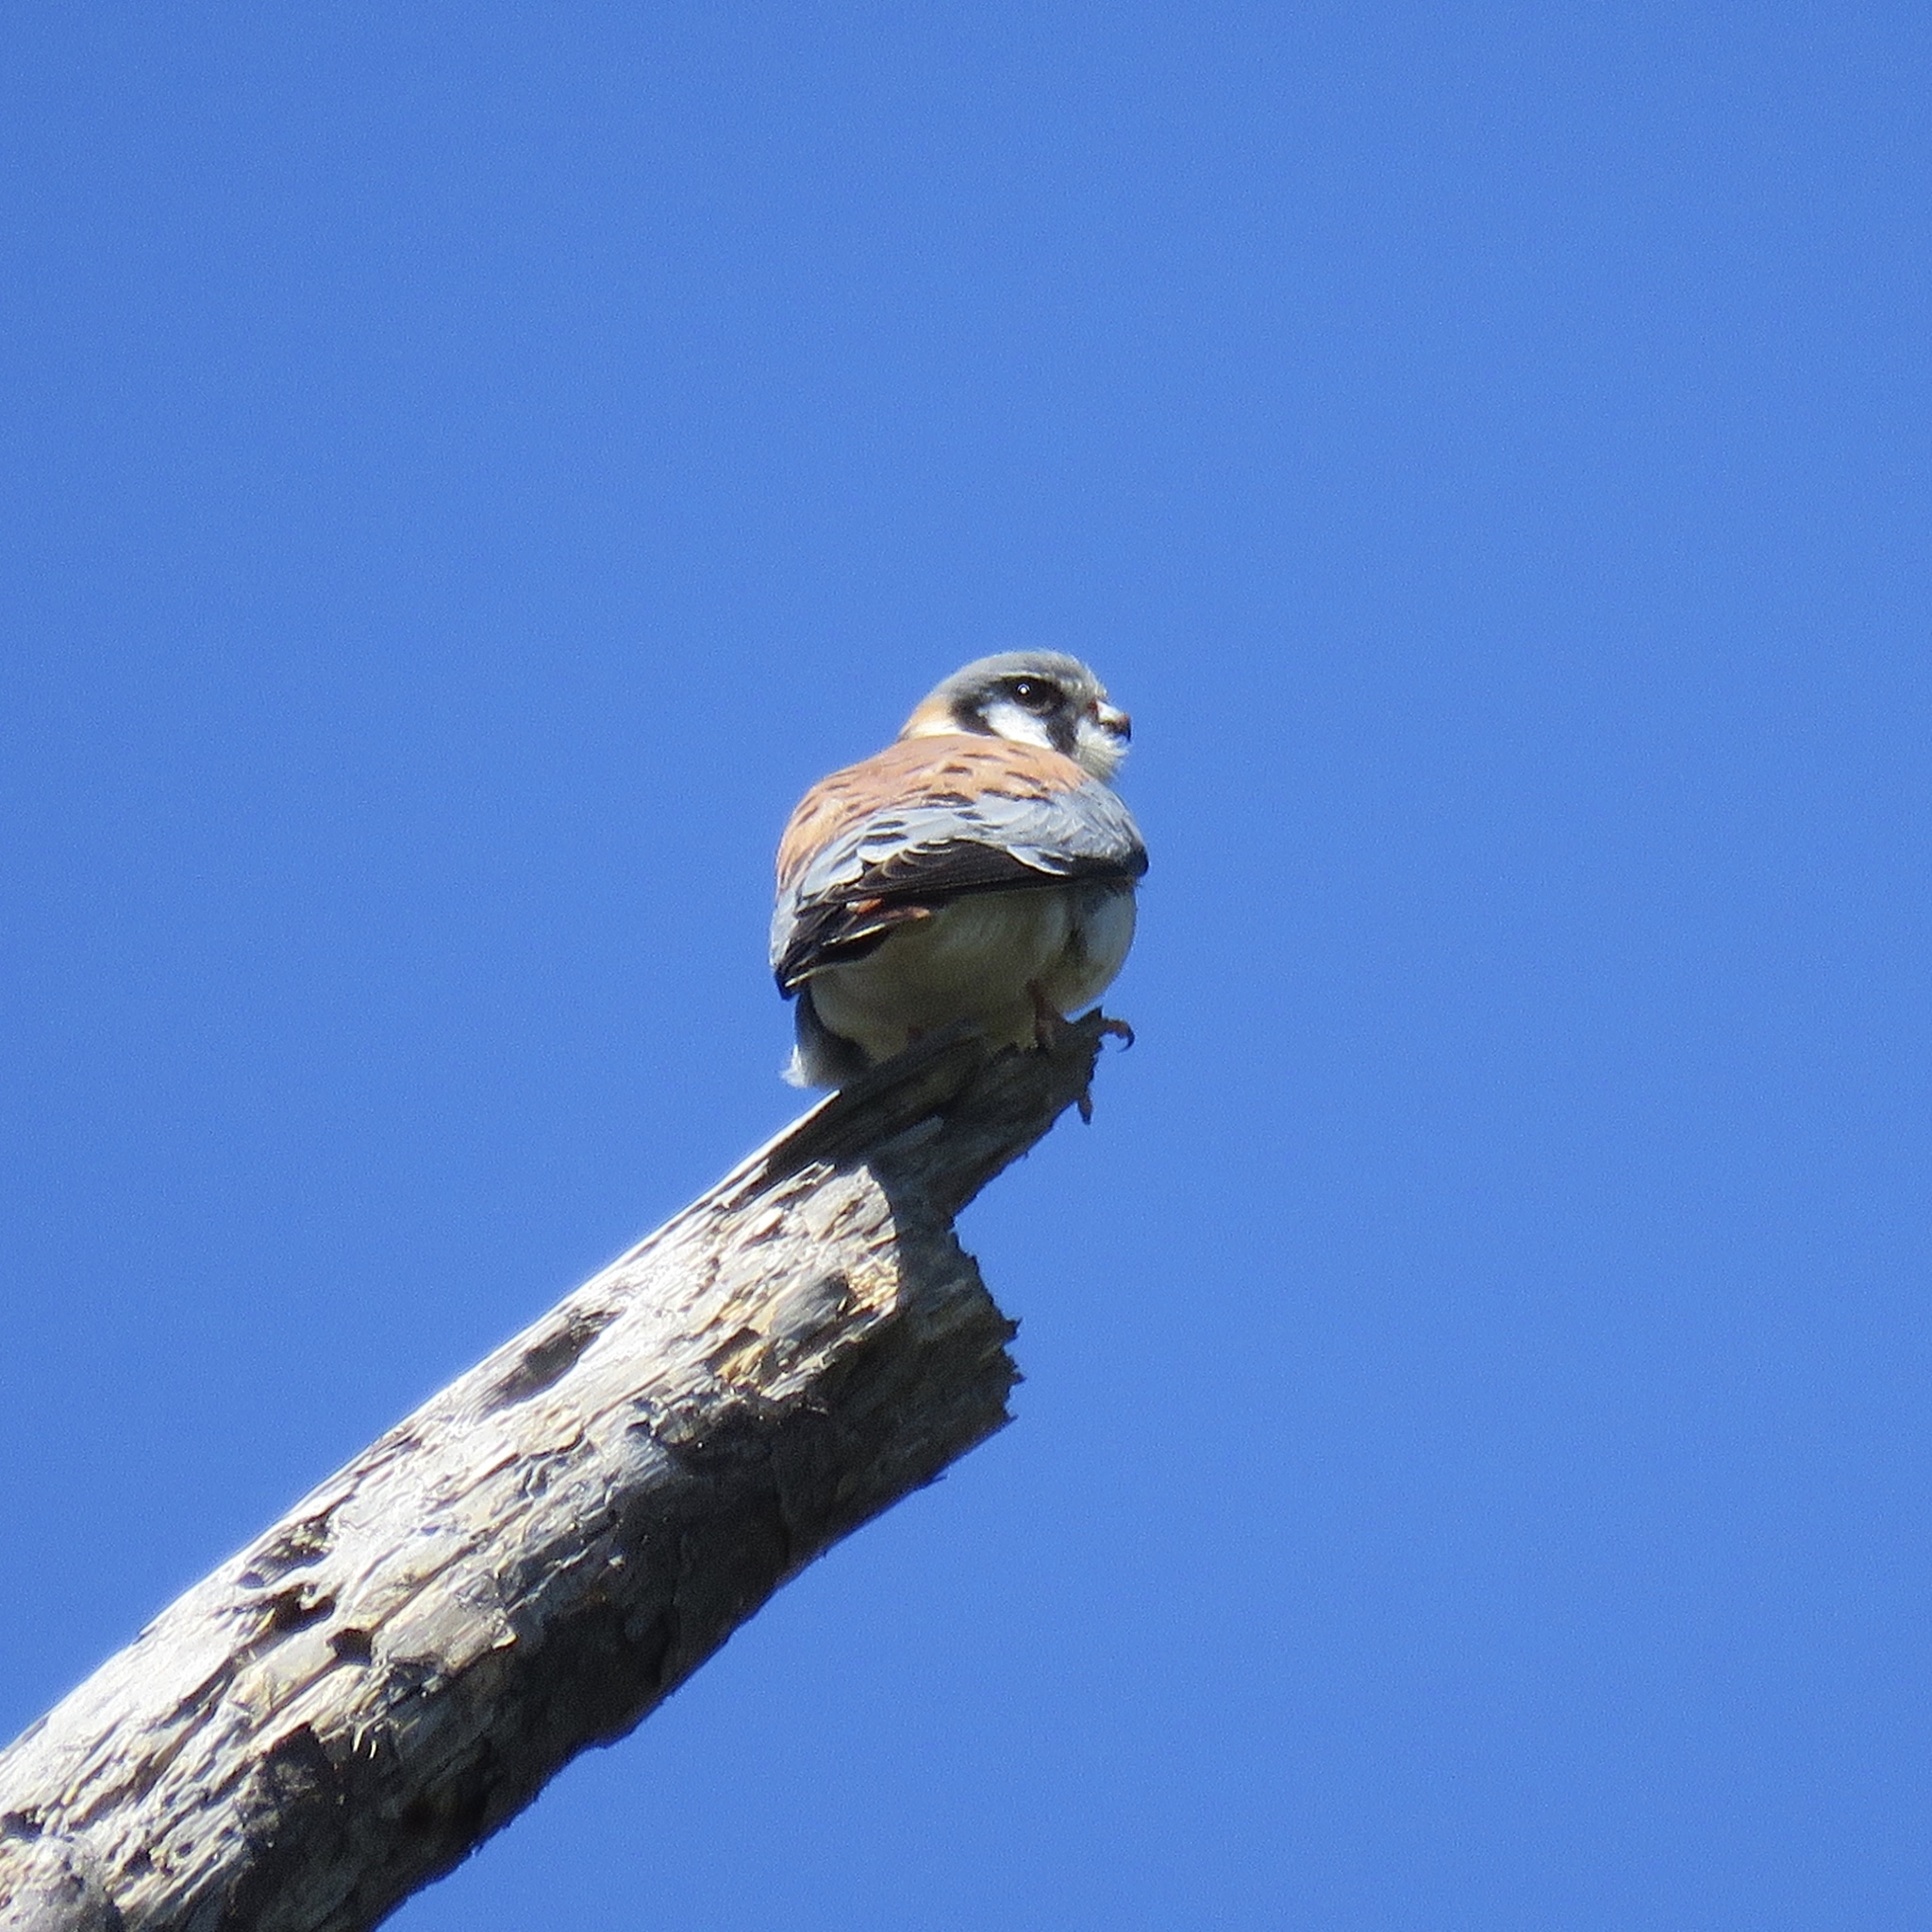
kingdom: Animalia
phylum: Chordata
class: Aves
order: Falconiformes
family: Falconidae
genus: Falco
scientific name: Falco sparverius
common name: American kestrel
